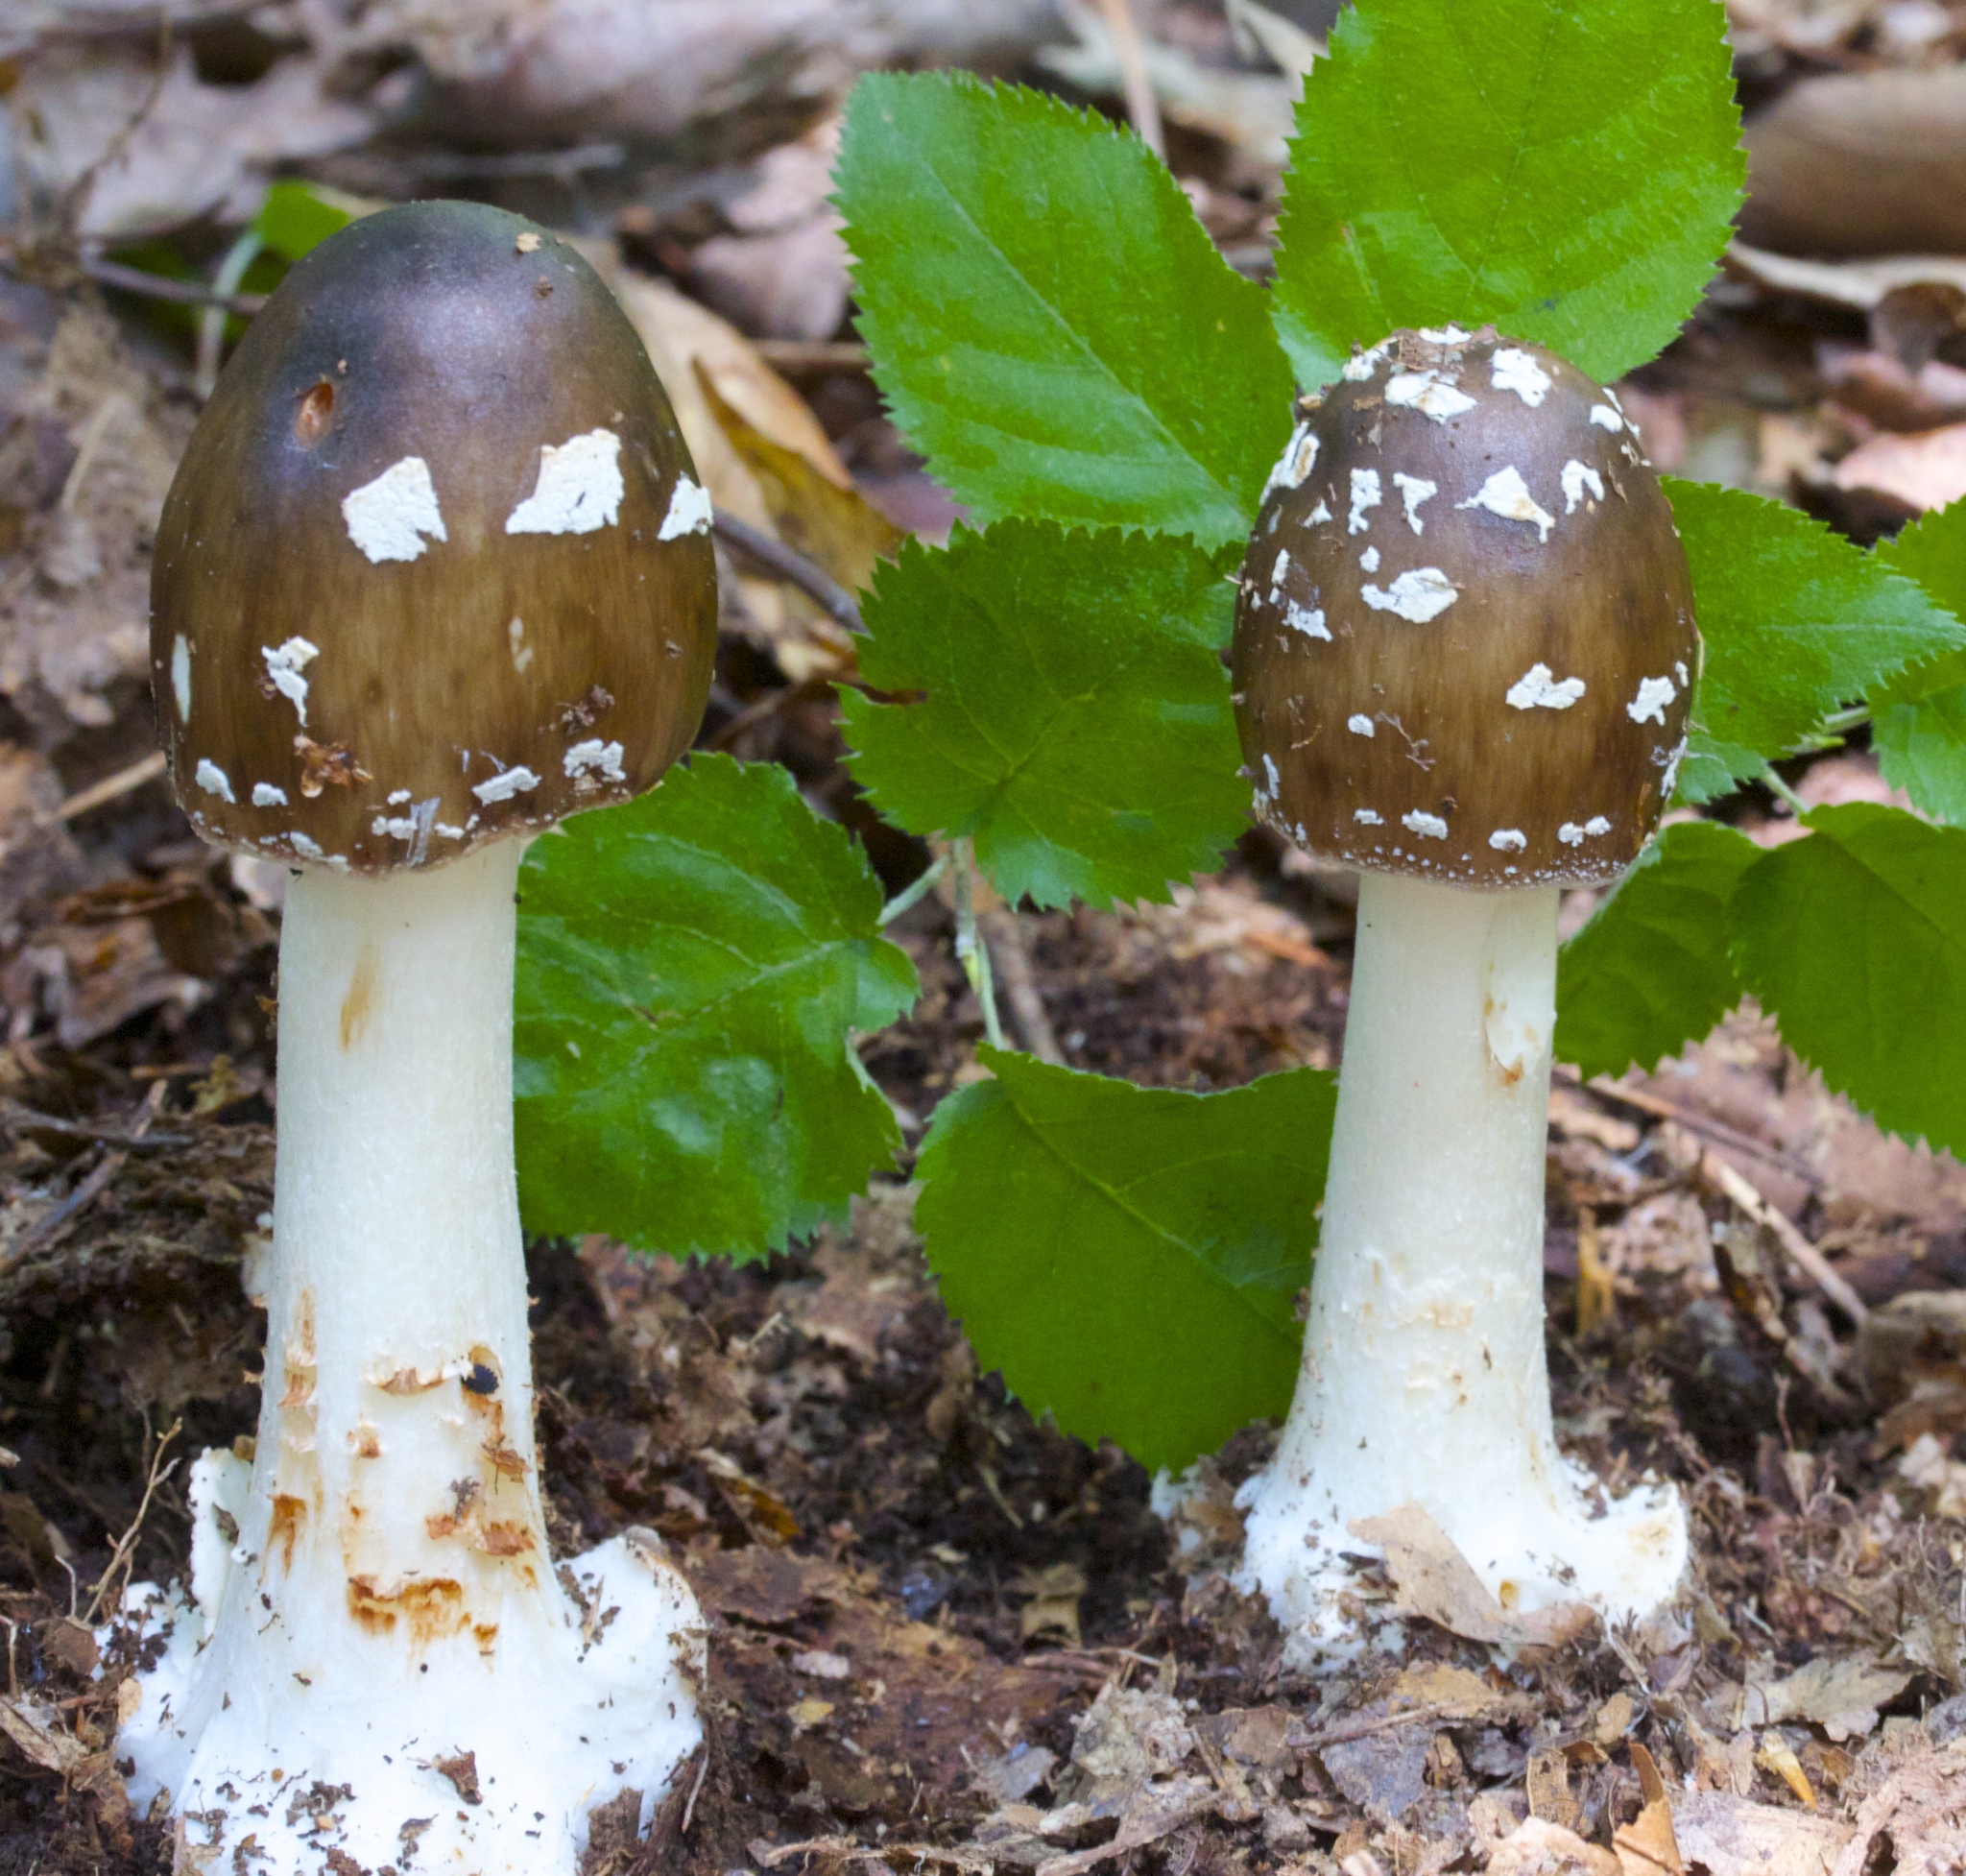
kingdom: Fungi
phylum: Basidiomycota
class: Agaricomycetes
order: Agaricales
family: Amanitaceae
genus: Amanita
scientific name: Amanita brunnescens
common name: Brown american star-footed amanita
